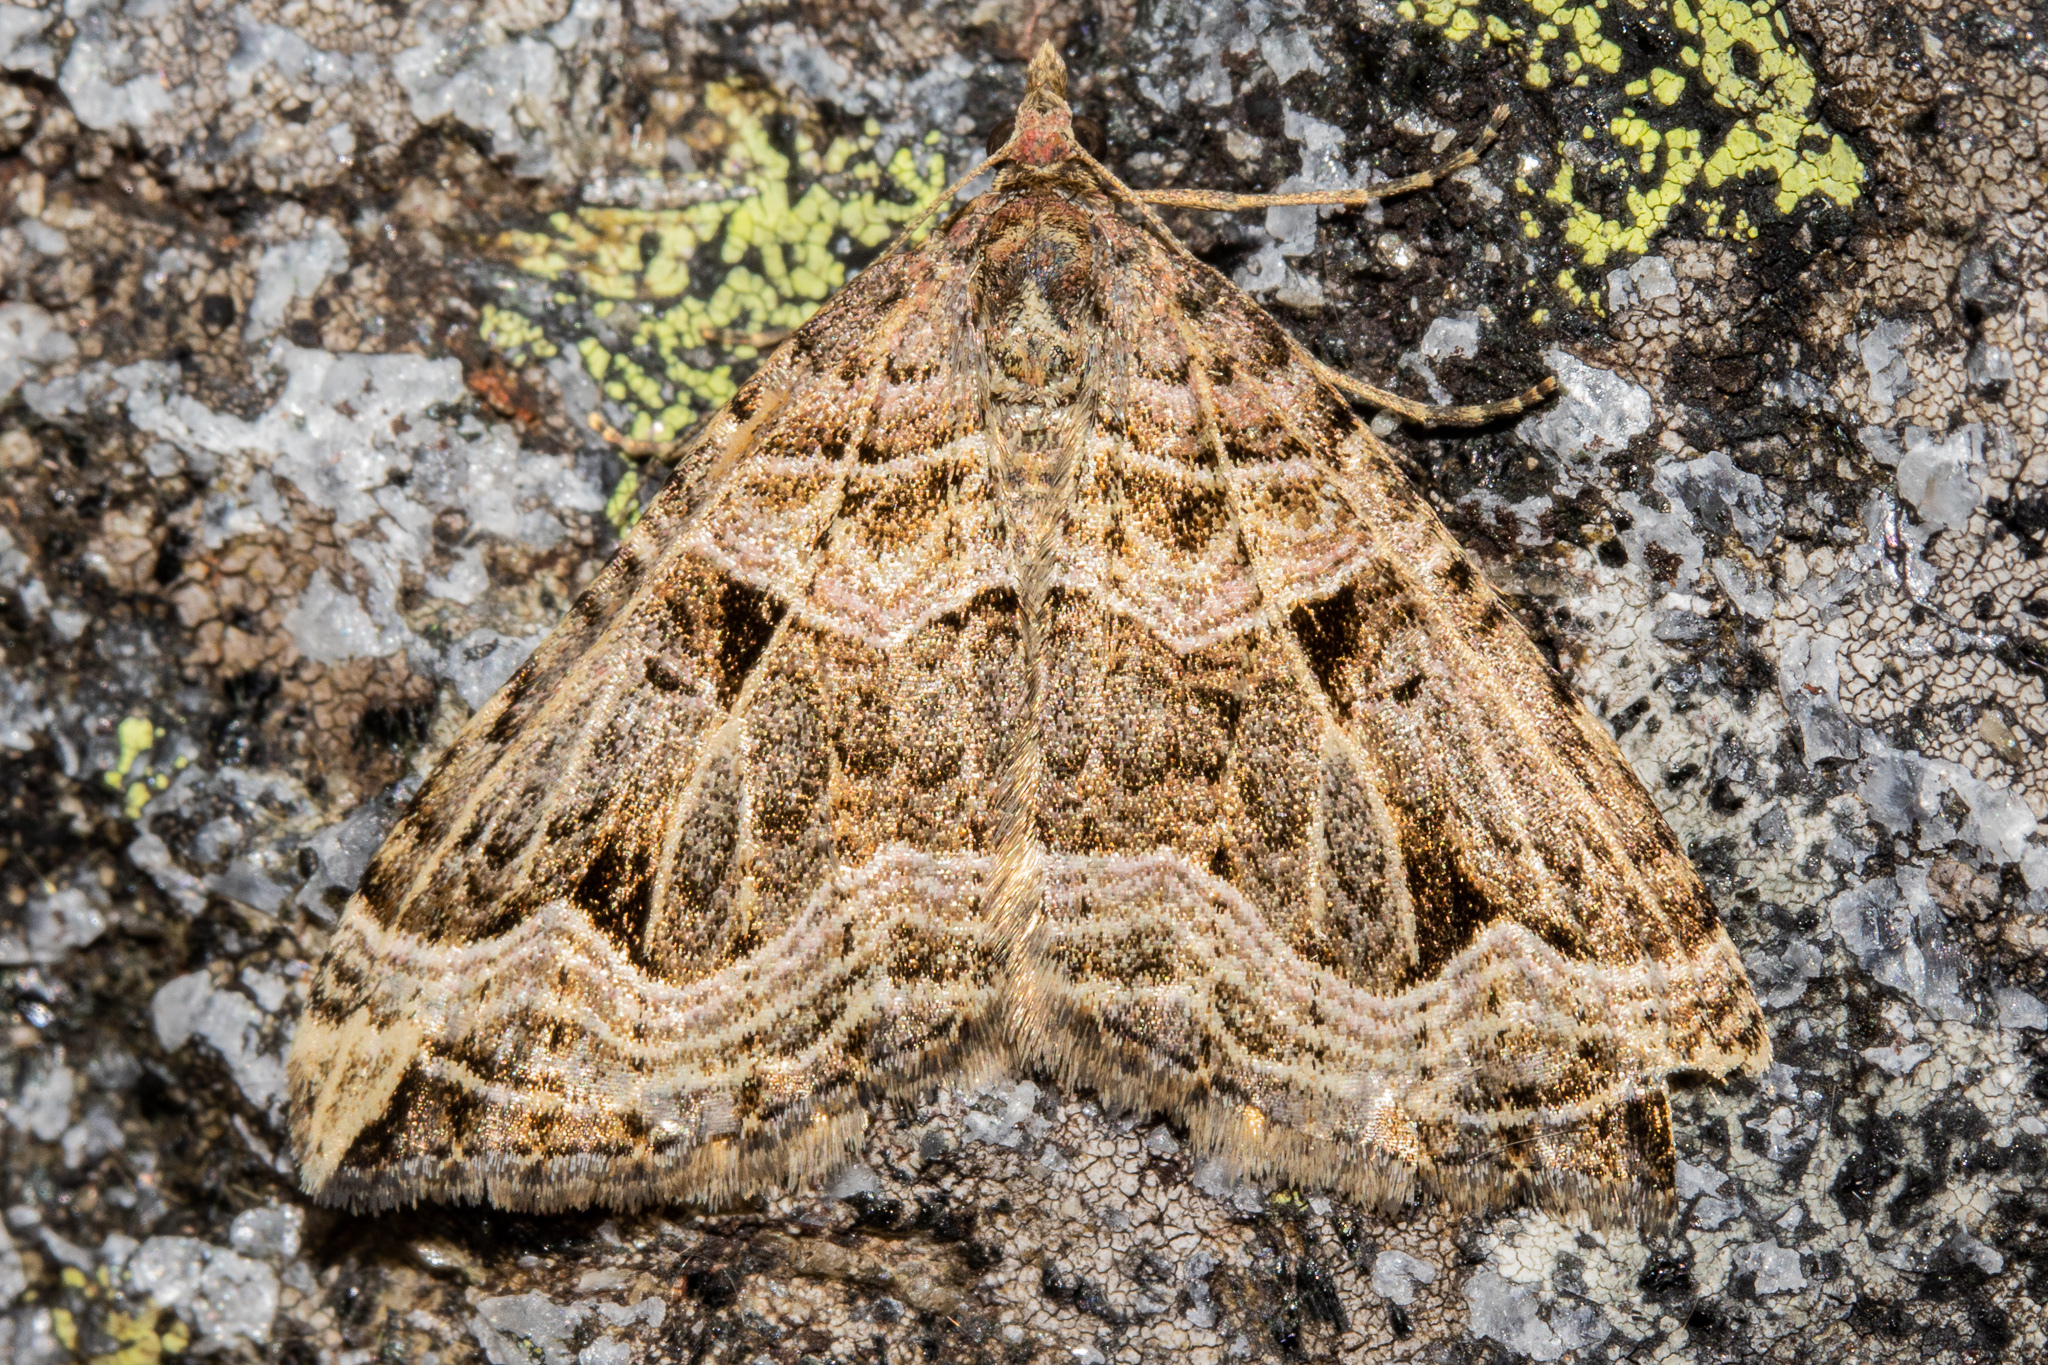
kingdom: Animalia
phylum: Arthropoda
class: Insecta
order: Lepidoptera
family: Geometridae
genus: Xanthorhoe
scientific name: Xanthorhoe semifissata
